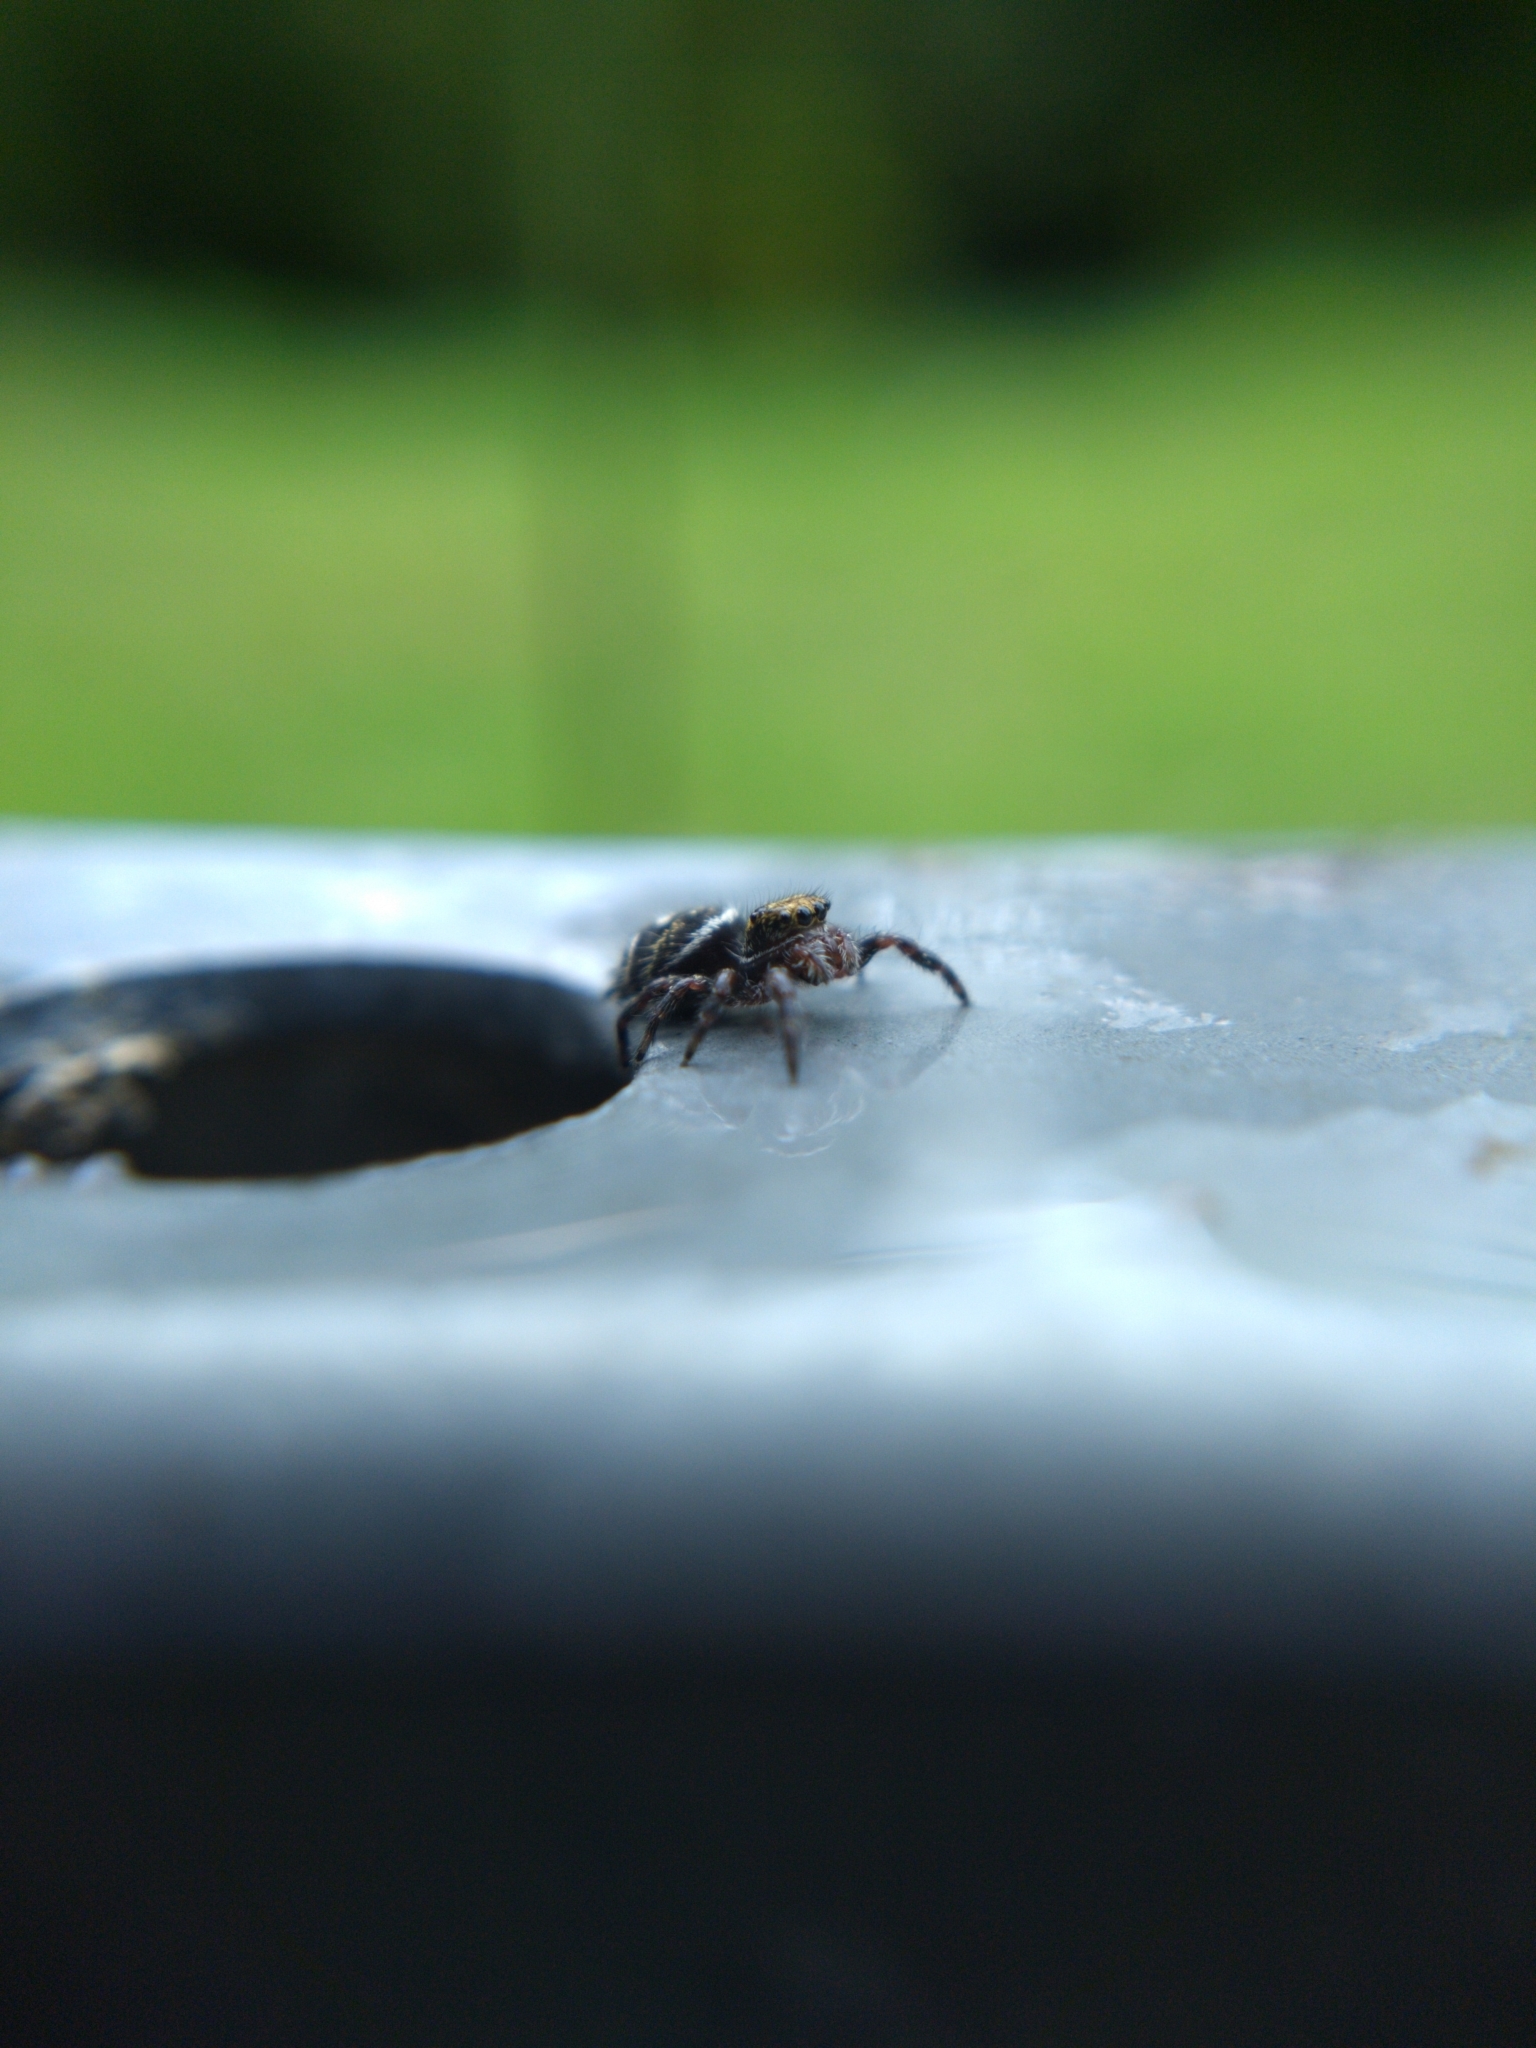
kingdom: Animalia
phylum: Arthropoda
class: Arachnida
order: Araneae
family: Salticidae
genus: Phidippus
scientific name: Phidippus audax
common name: Bold jumper
